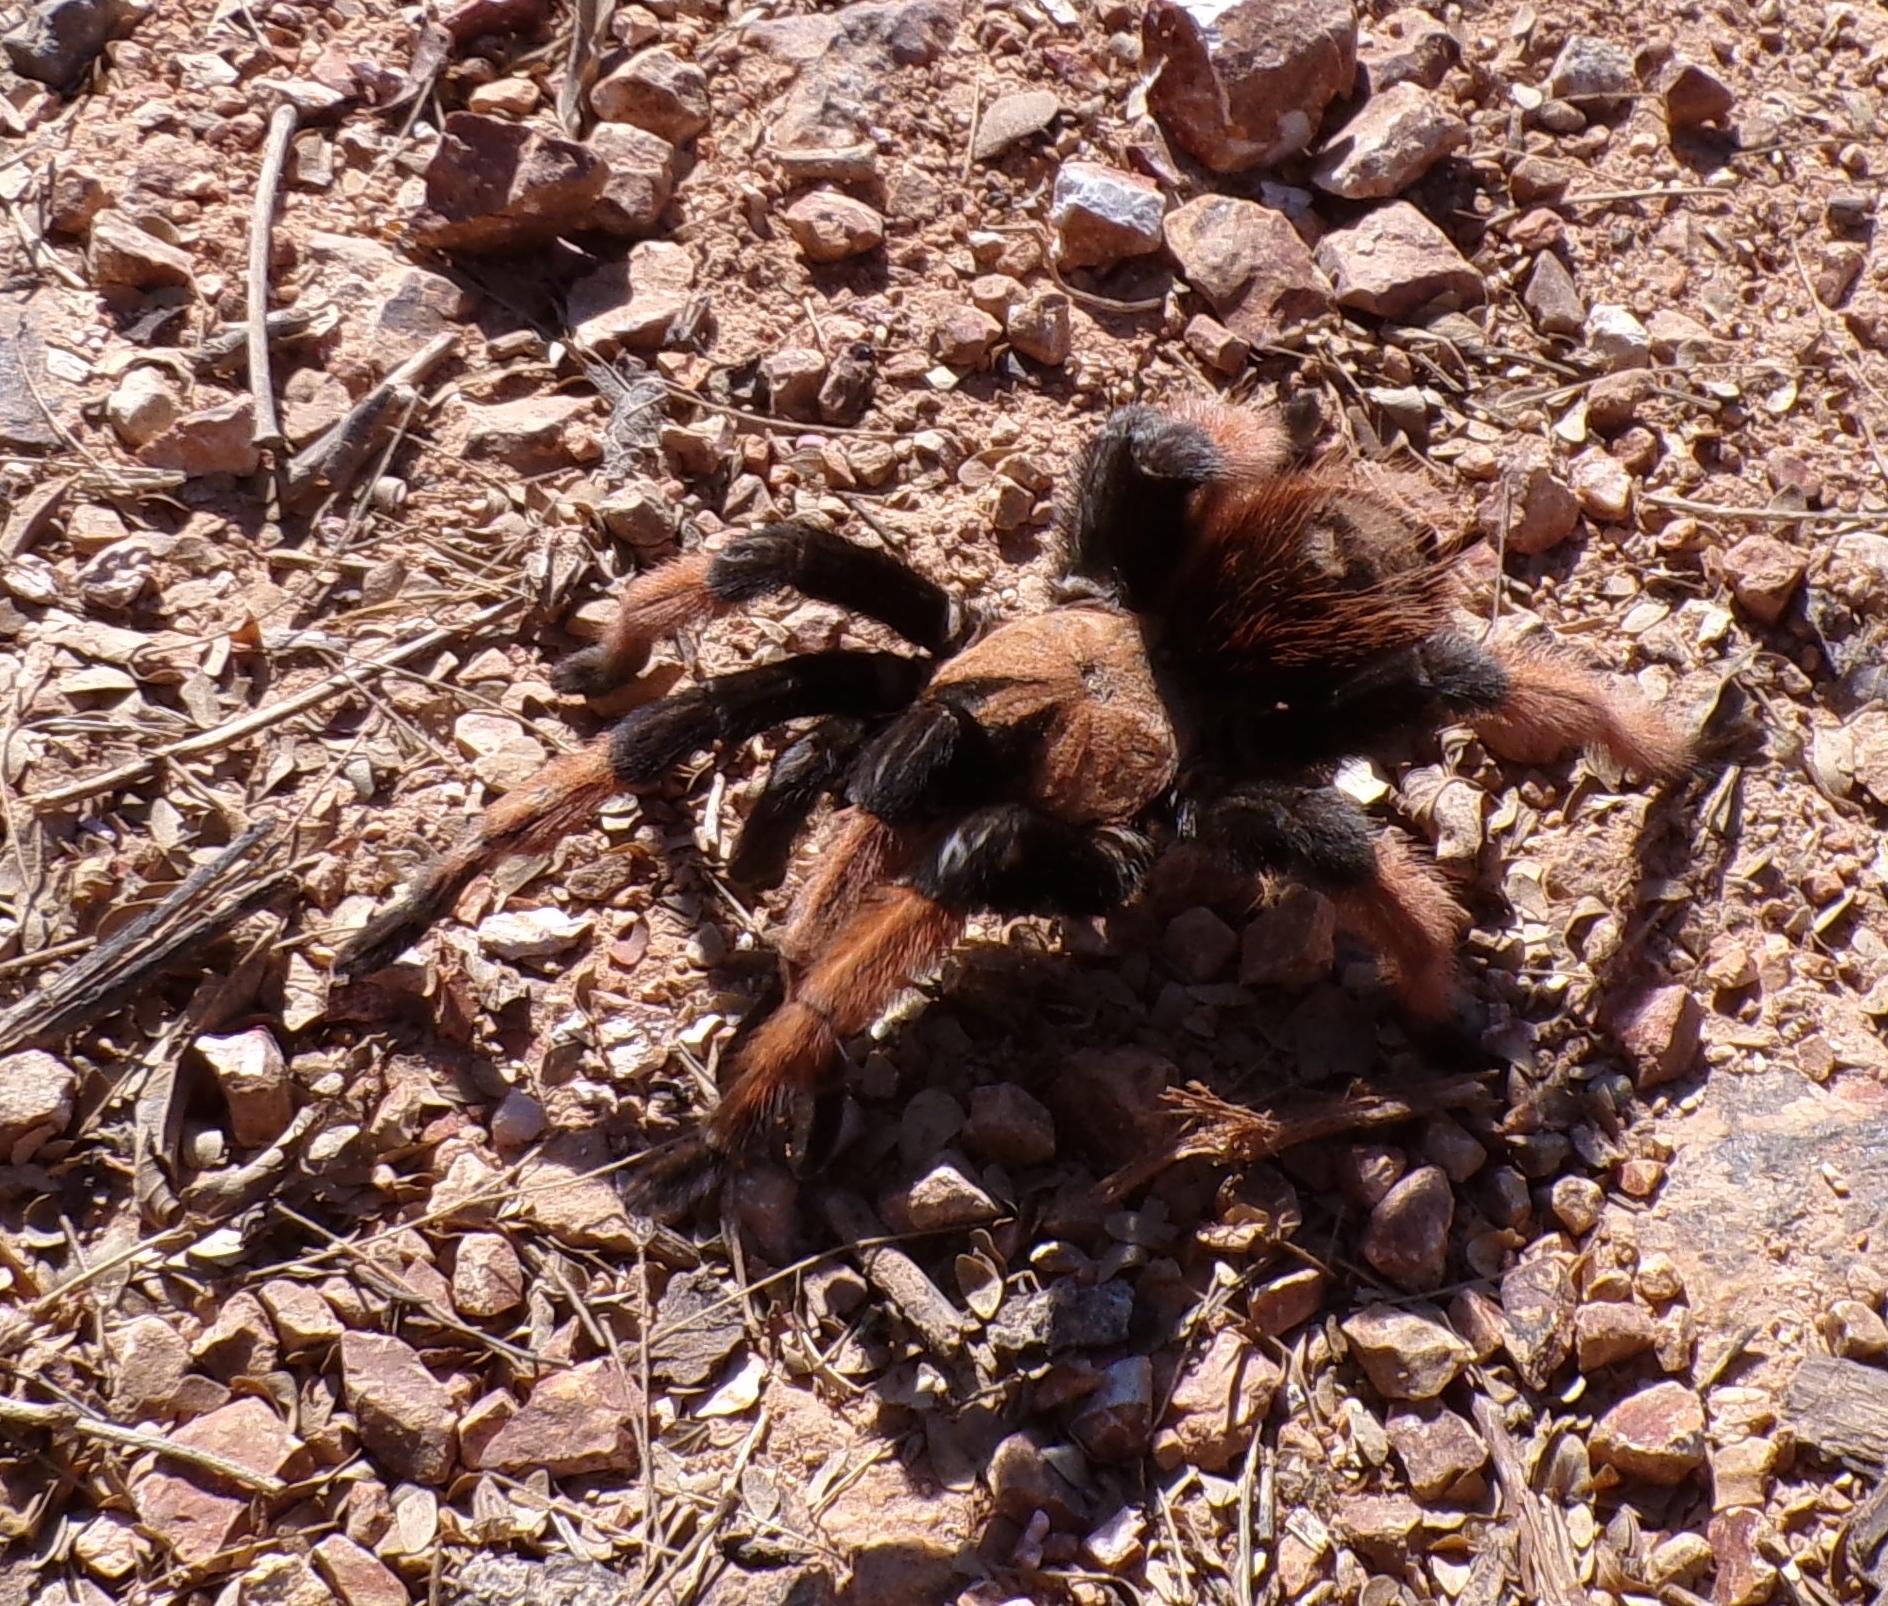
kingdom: Animalia
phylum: Arthropoda
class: Arachnida
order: Araneae
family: Theraphosidae
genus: Brachypelma
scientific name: Brachypelma emilia
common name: Mexican redleg
